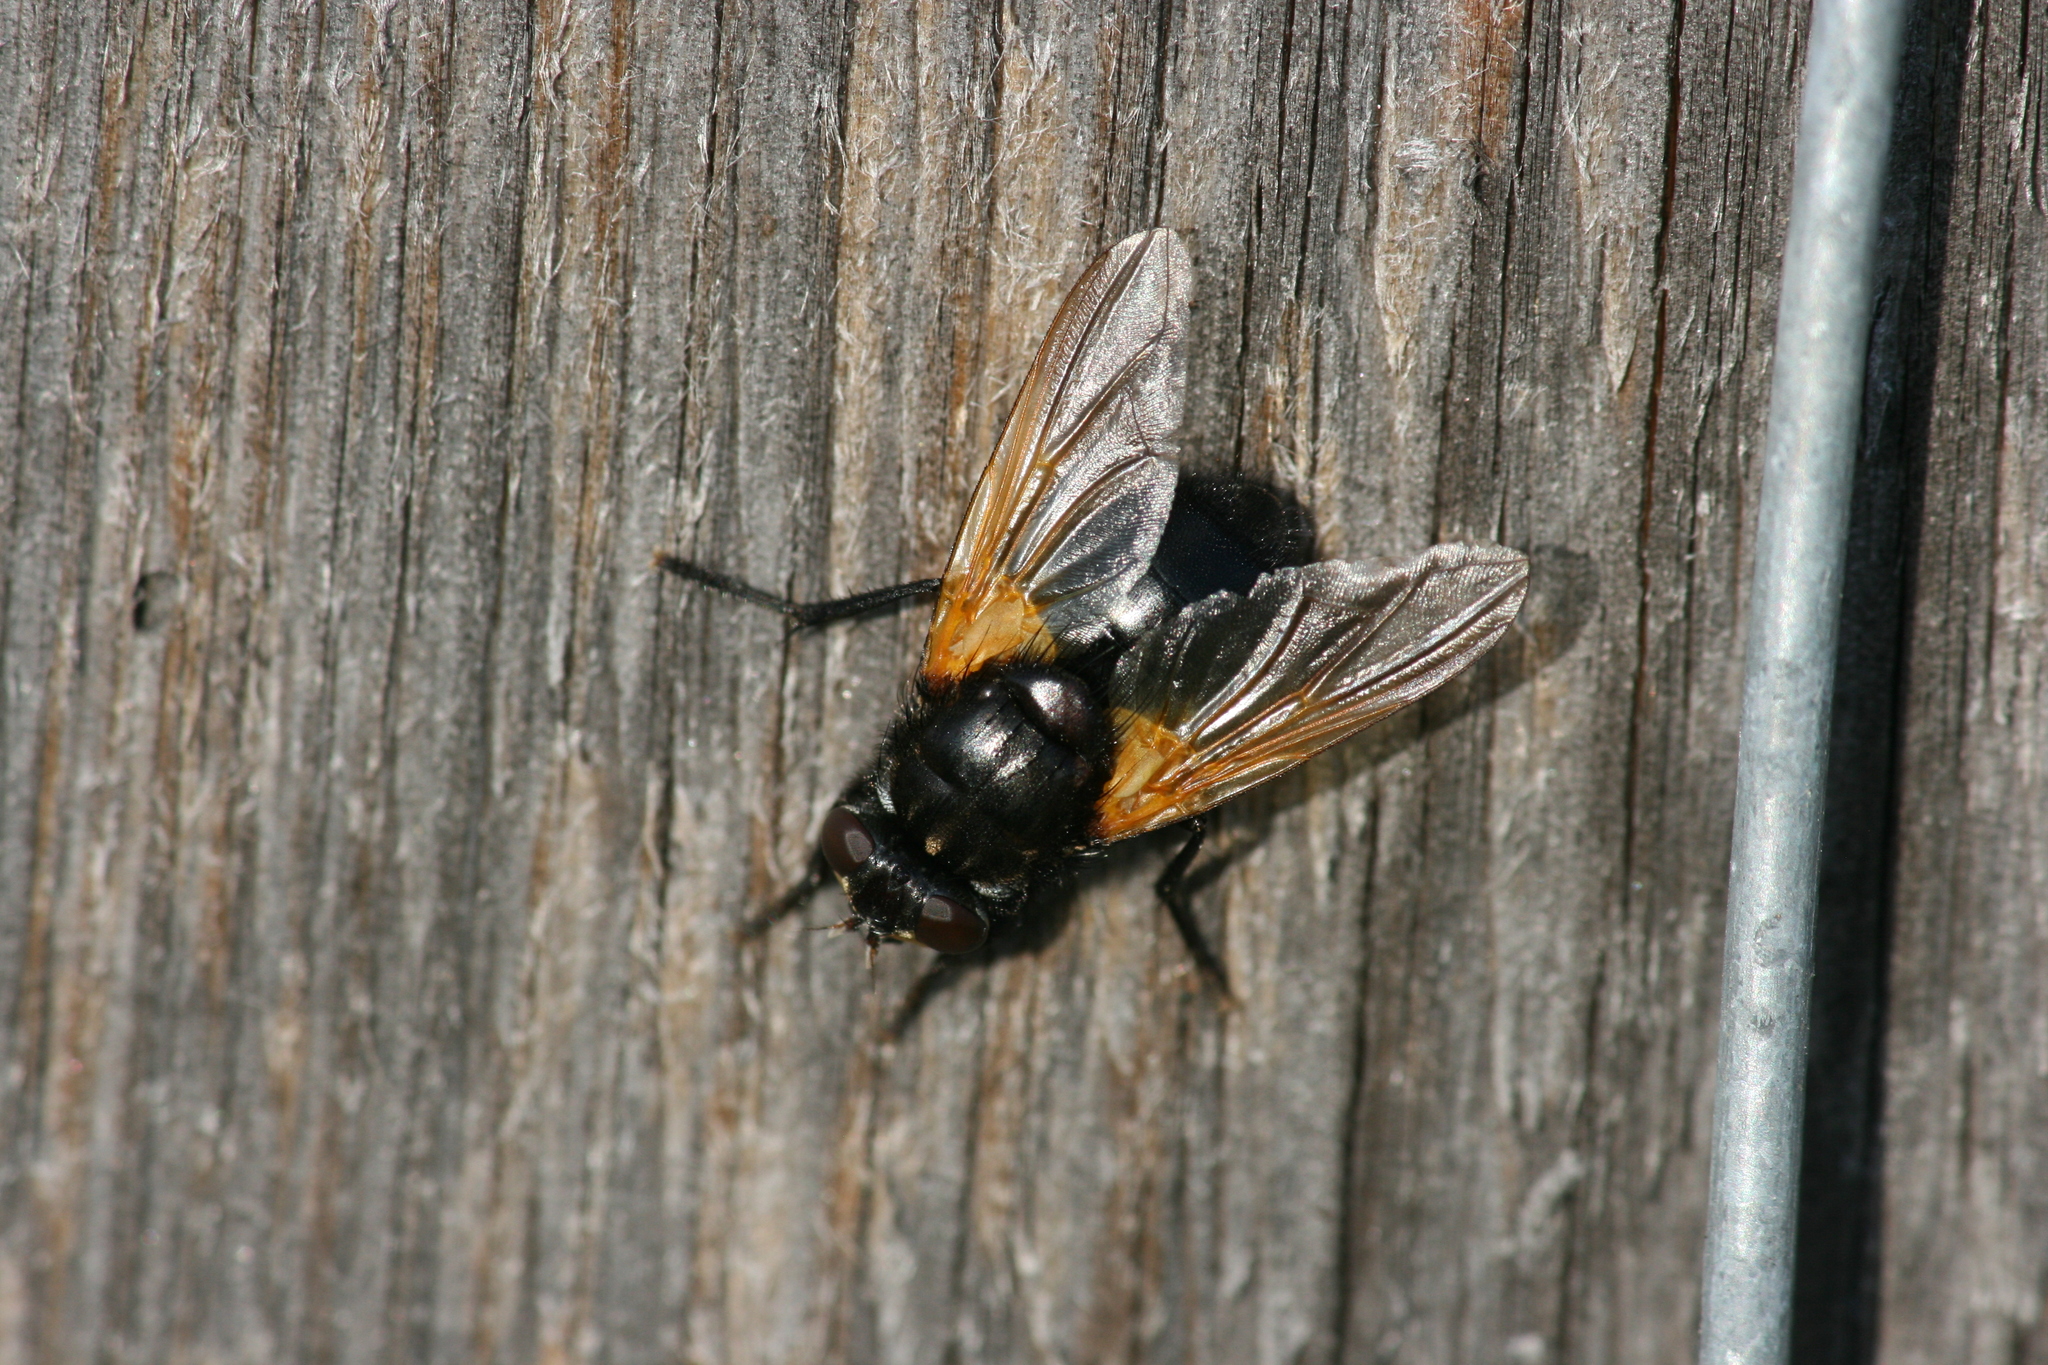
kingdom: Animalia
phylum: Arthropoda
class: Insecta
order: Diptera
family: Muscidae
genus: Mesembrina
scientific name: Mesembrina meridiana
